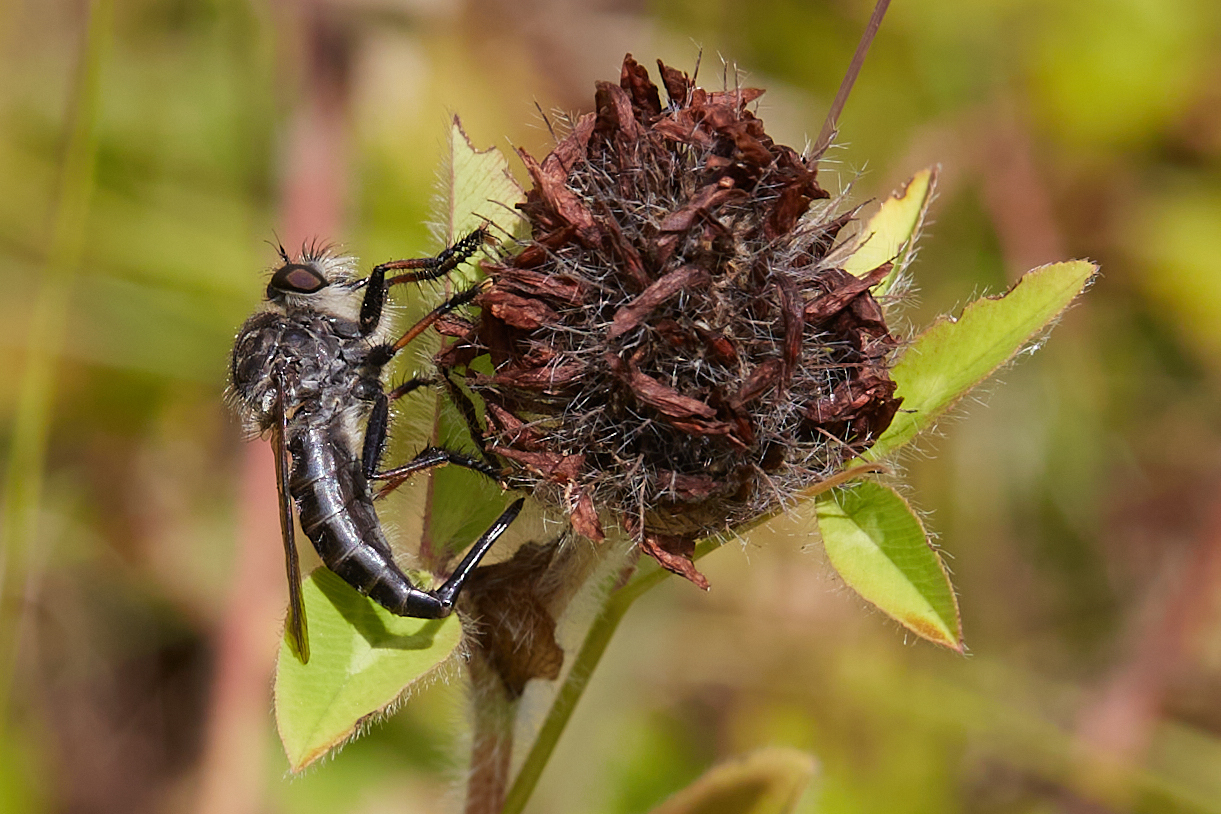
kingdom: Animalia
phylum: Arthropoda
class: Insecta
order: Diptera
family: Asilidae
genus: Efferia
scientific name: Efferia aestuans
